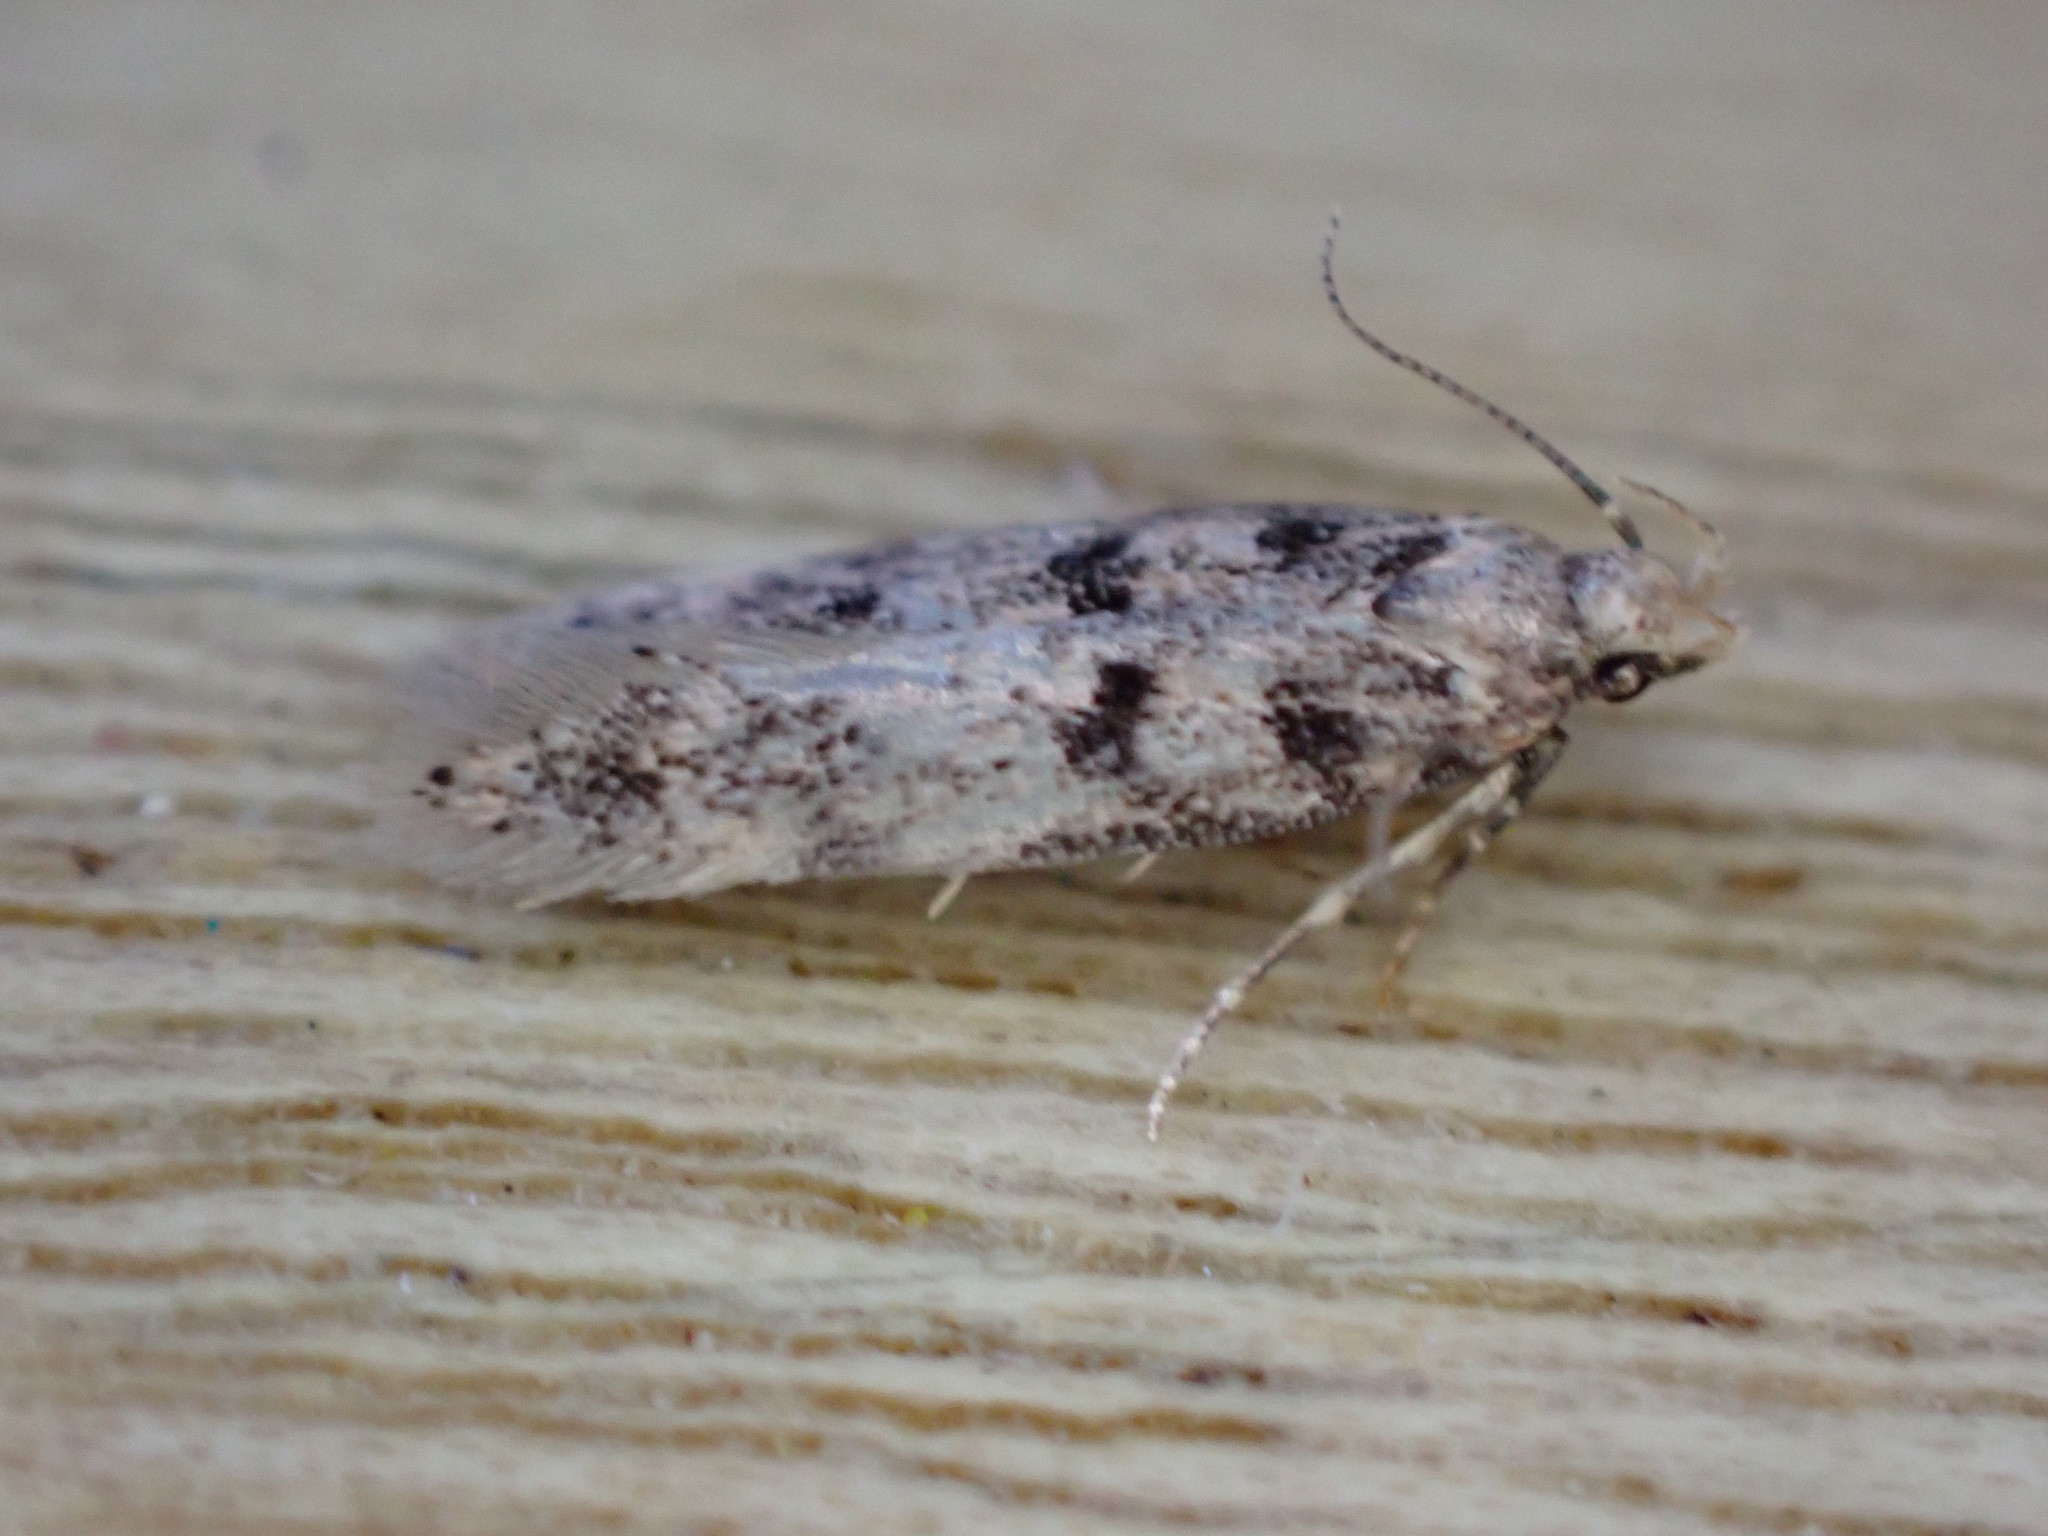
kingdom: Animalia
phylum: Arthropoda
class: Insecta
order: Lepidoptera
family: Gelechiidae
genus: Bryotropha
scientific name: Bryotropha domestica
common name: House groundling
